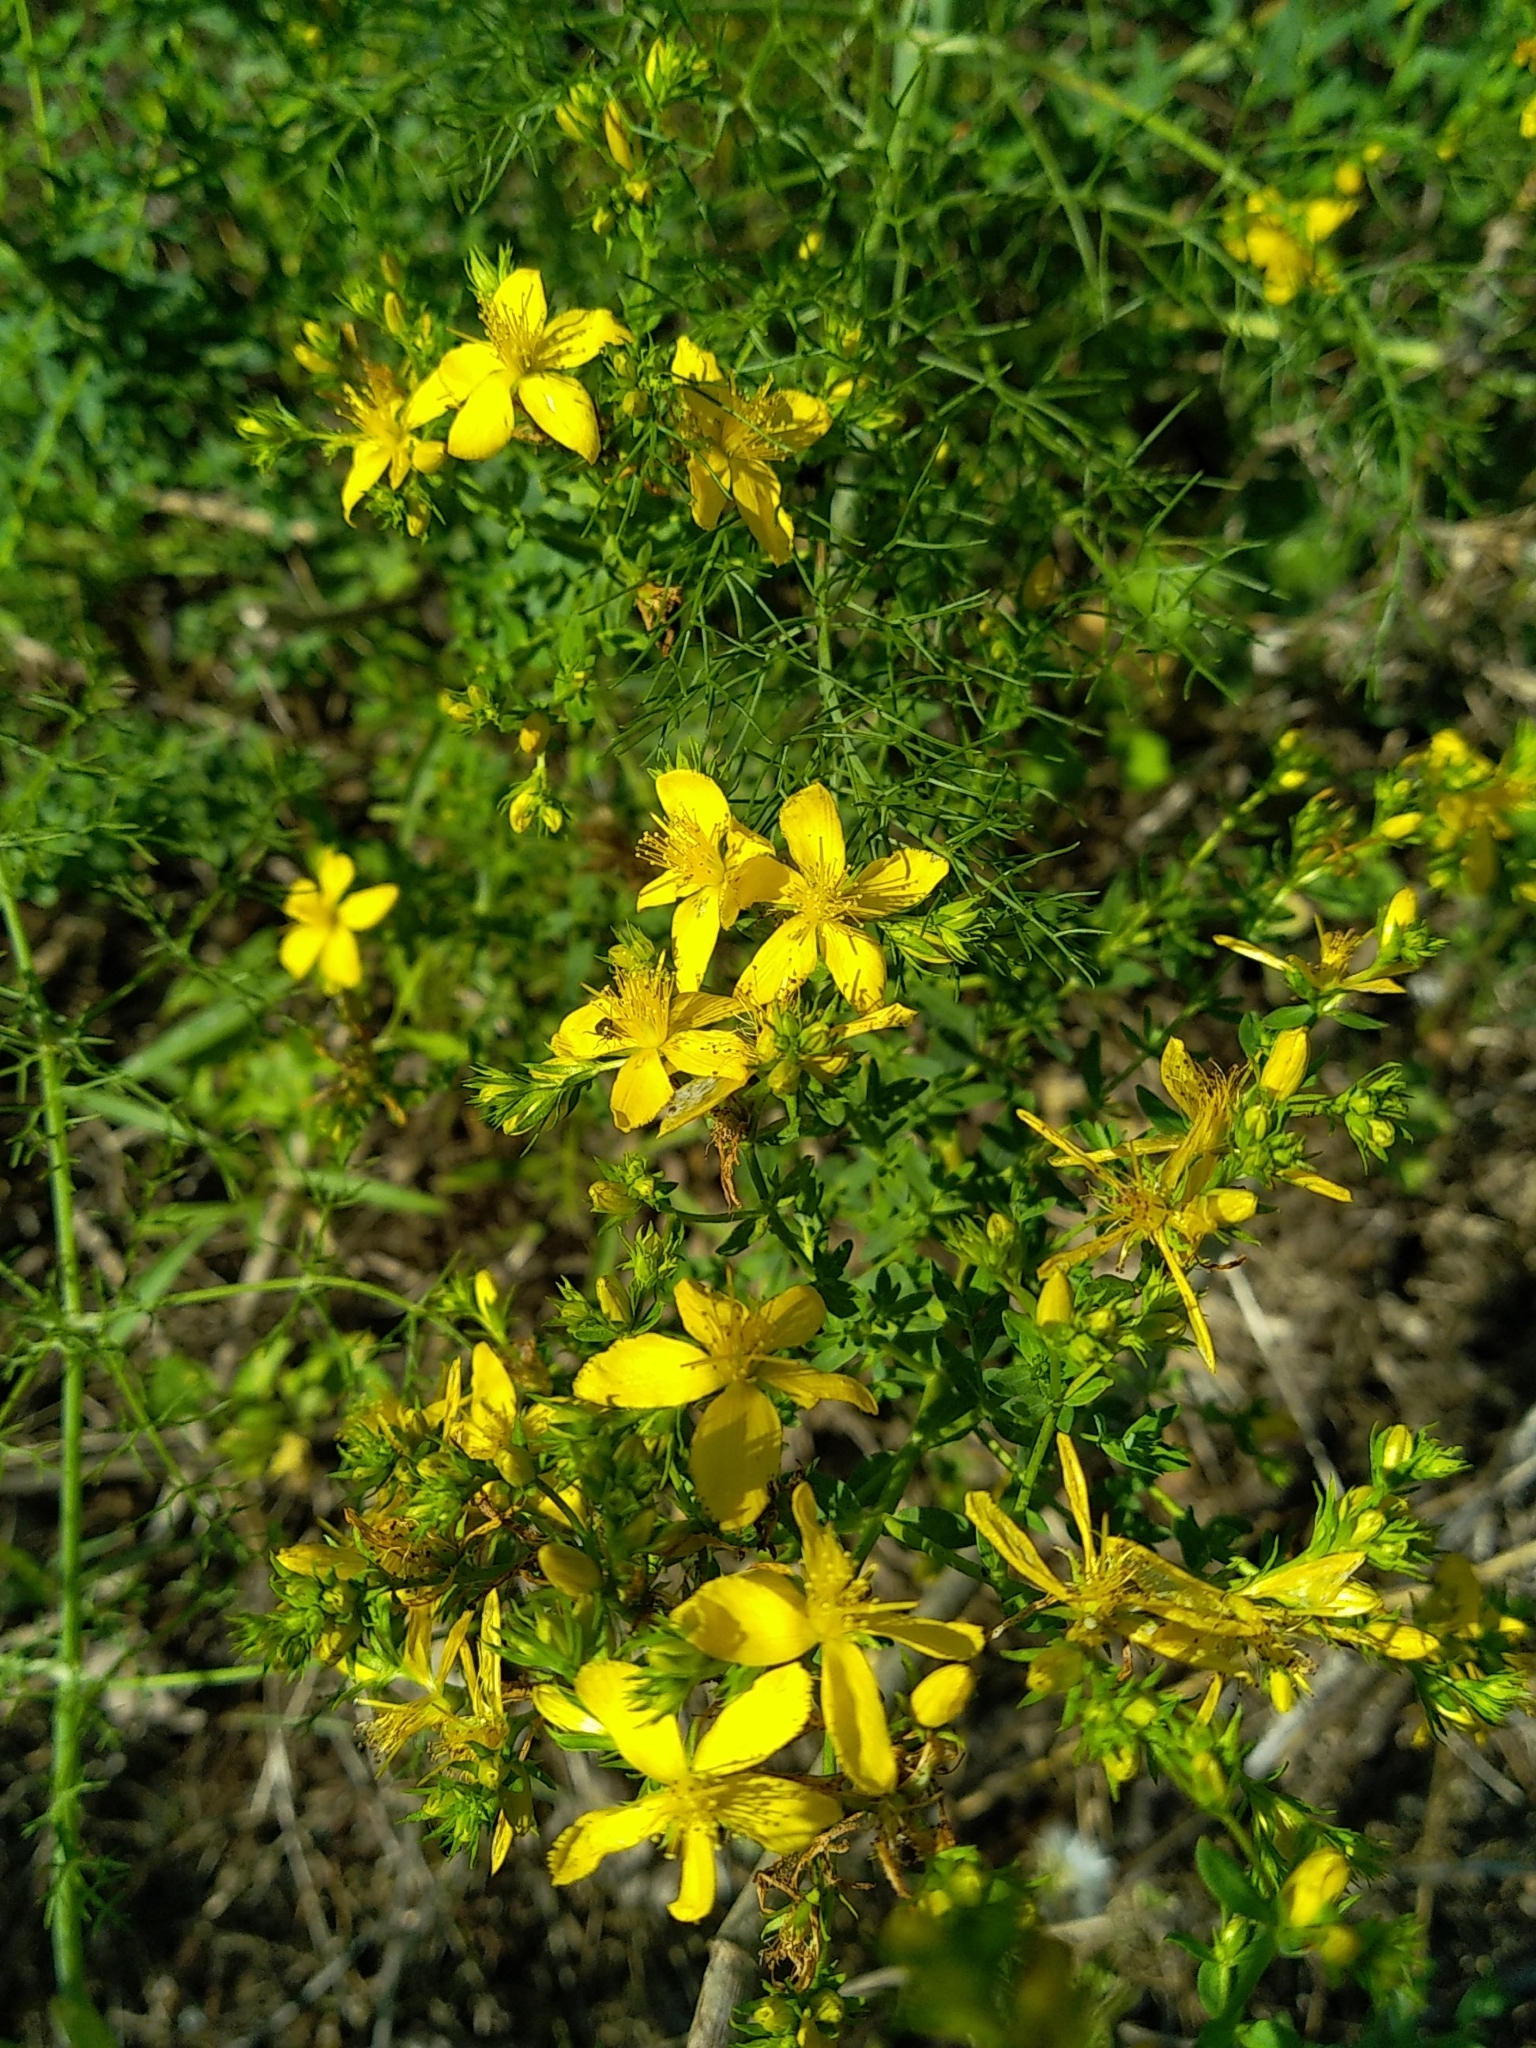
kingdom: Plantae
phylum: Tracheophyta
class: Magnoliopsida
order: Malpighiales
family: Hypericaceae
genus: Hypericum
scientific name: Hypericum perforatum
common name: Common st. johnswort
